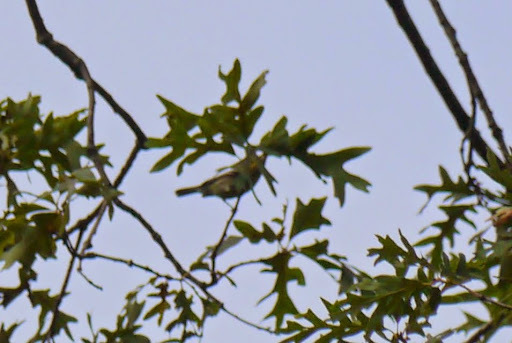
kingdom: Animalia
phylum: Chordata
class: Aves
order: Passeriformes
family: Parulidae
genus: Setophaga
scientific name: Setophaga virens
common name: Black-throated green warbler
